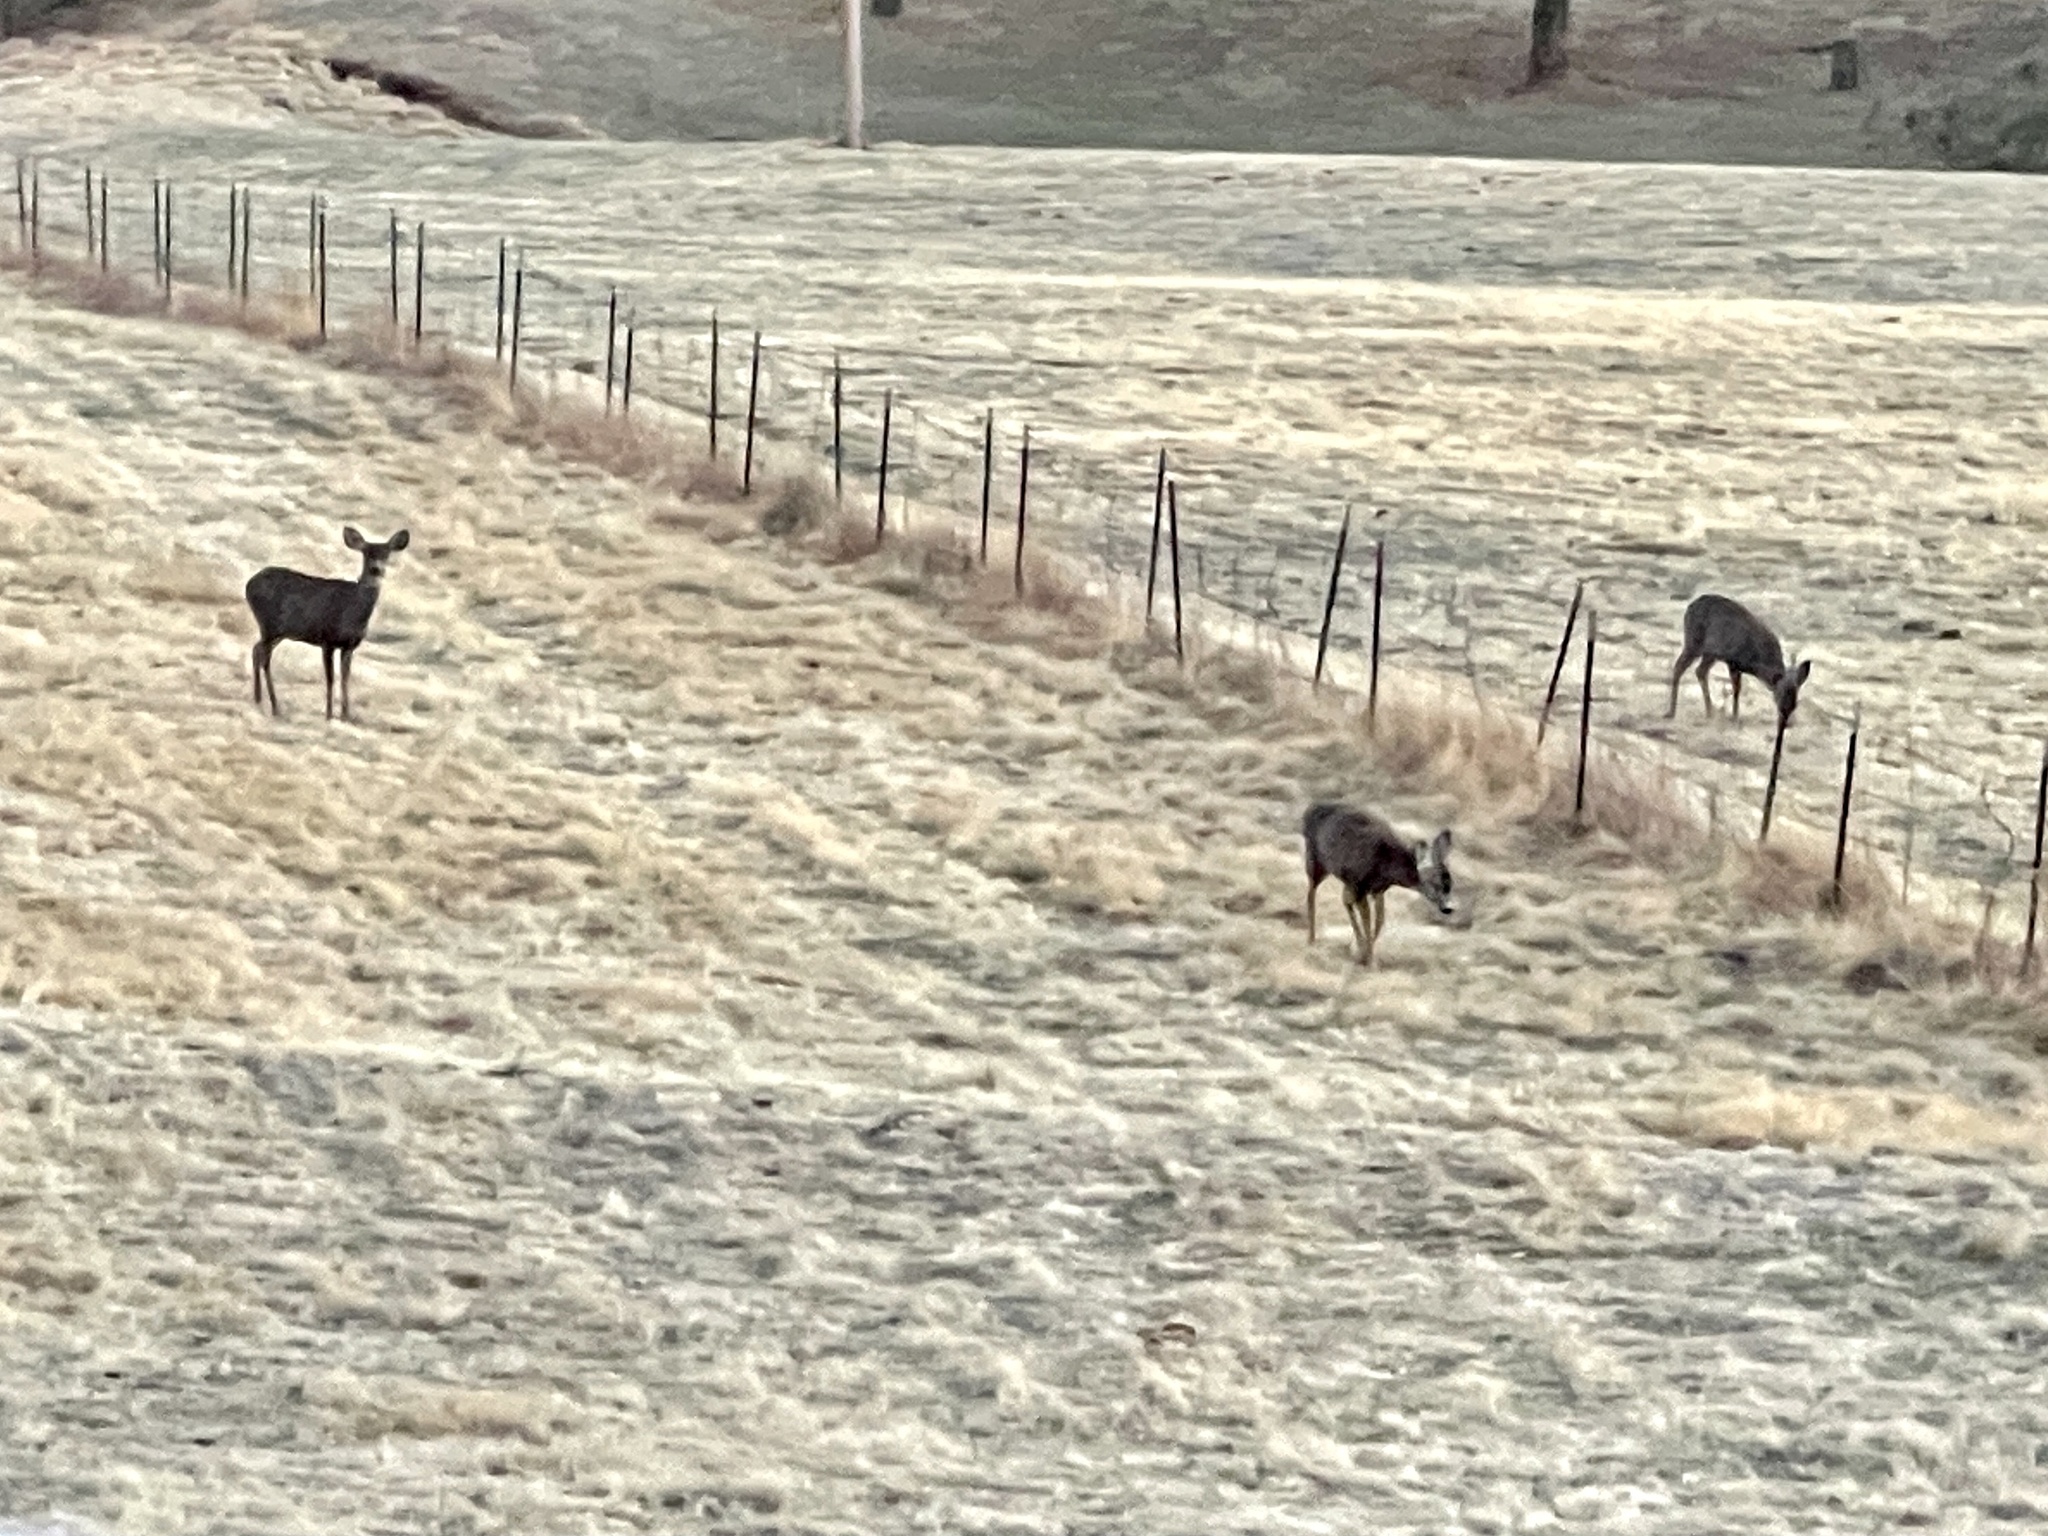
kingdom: Animalia
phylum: Chordata
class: Mammalia
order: Artiodactyla
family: Cervidae
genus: Odocoileus
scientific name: Odocoileus hemionus
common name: Mule deer
